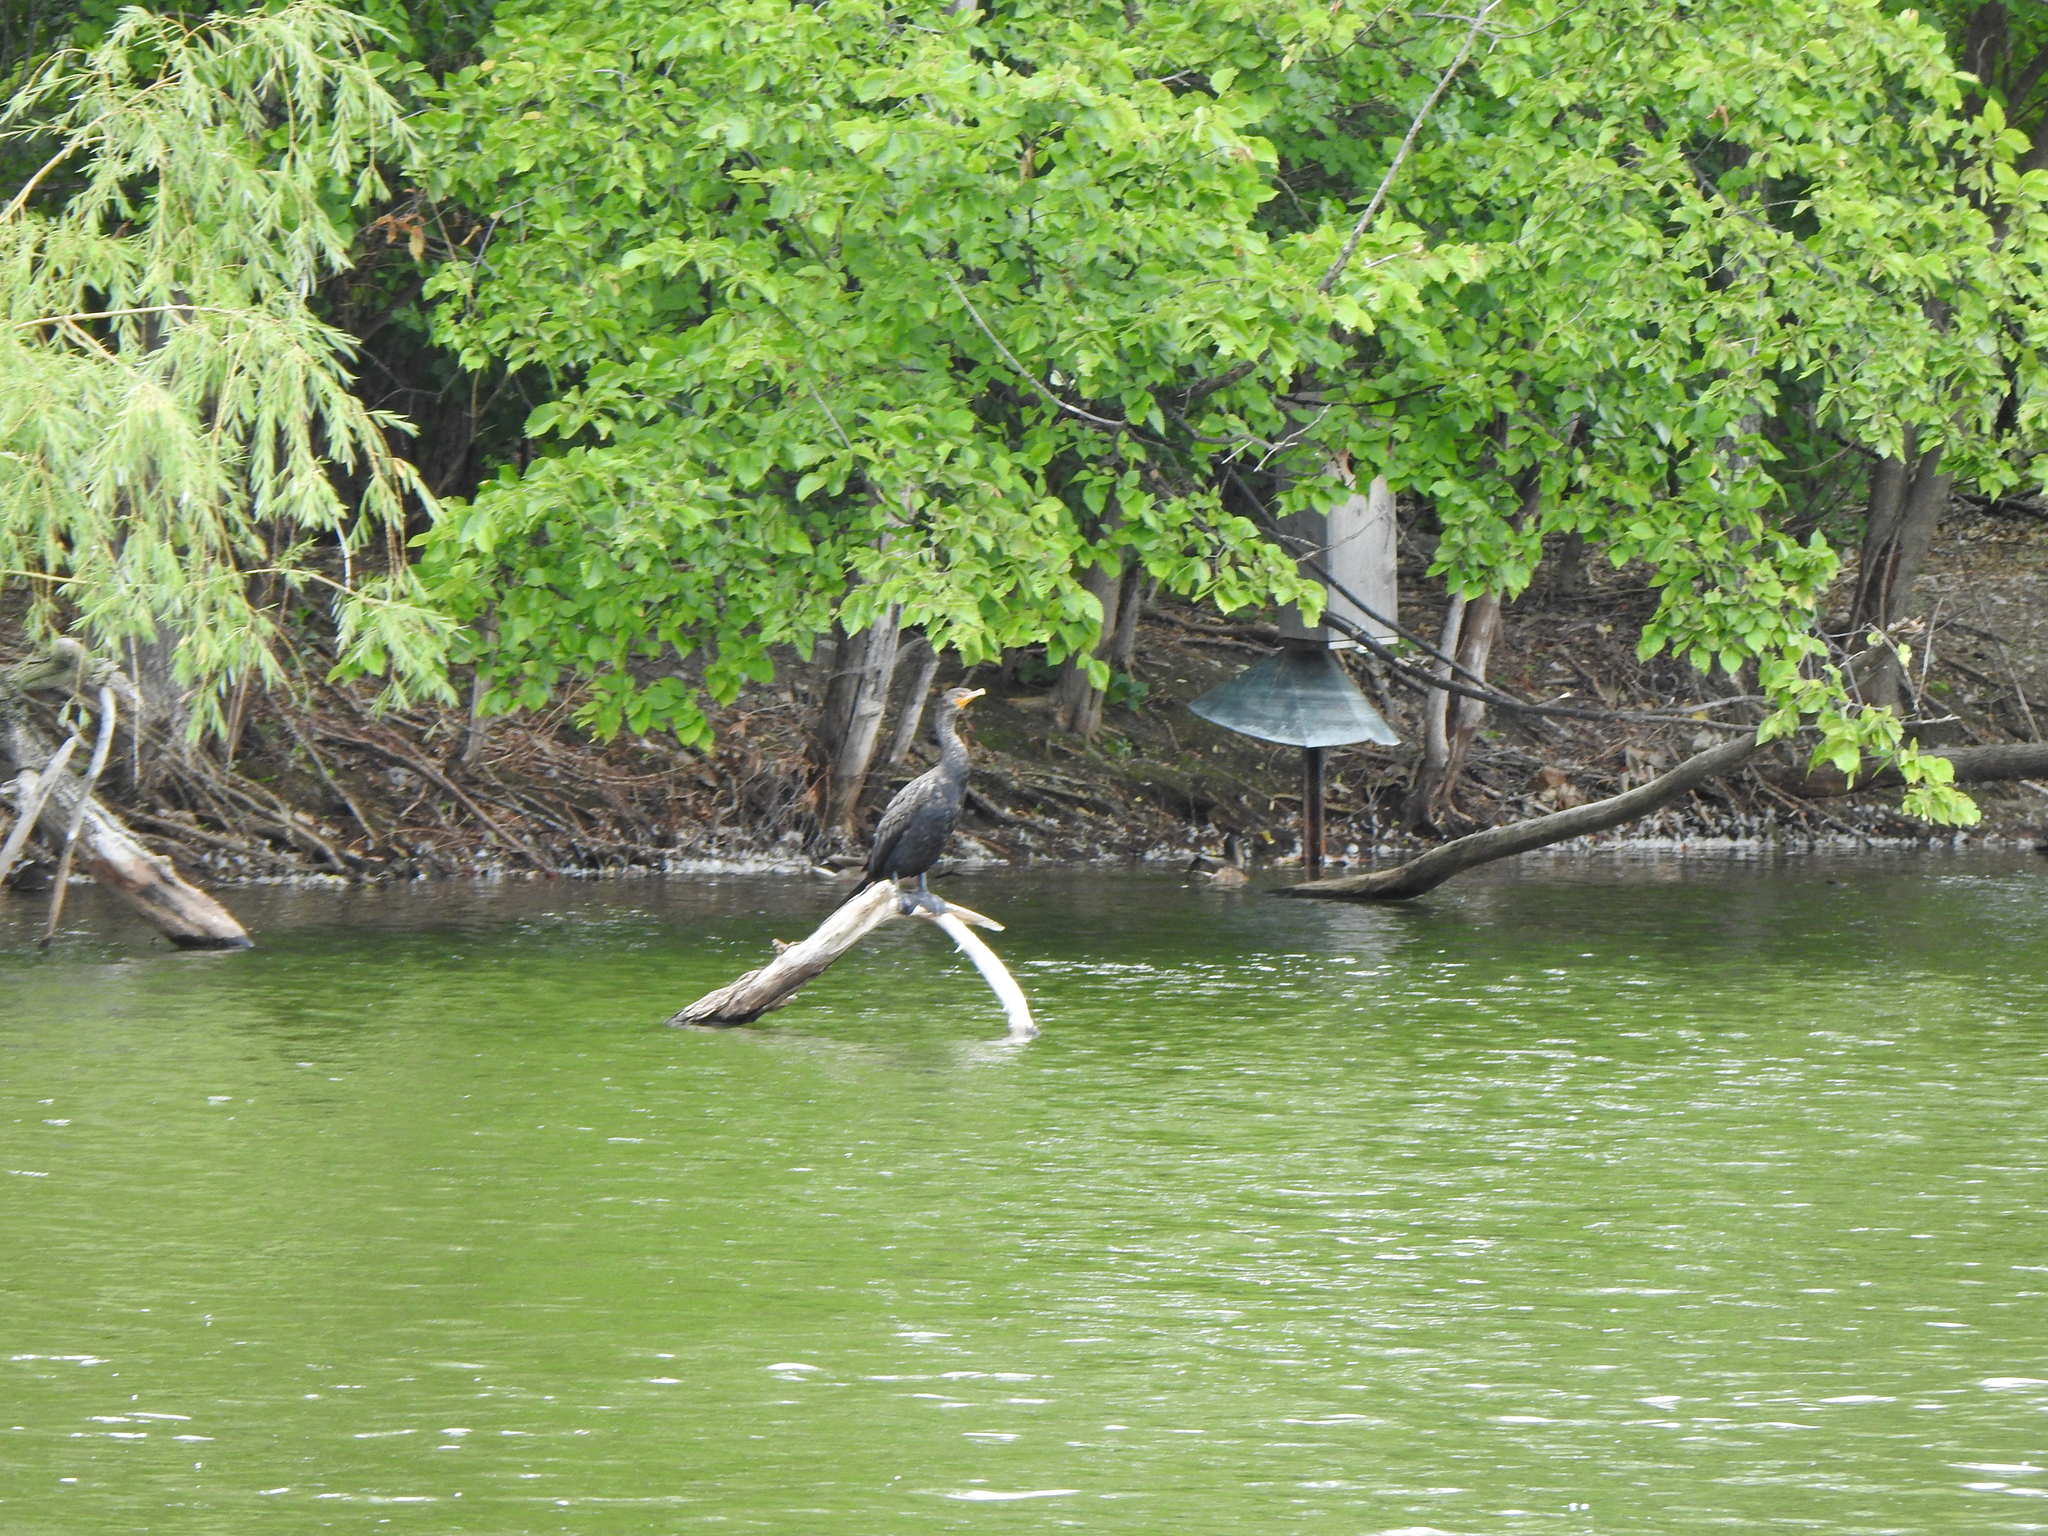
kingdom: Animalia
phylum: Chordata
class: Aves
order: Suliformes
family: Phalacrocoracidae
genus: Phalacrocorax
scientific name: Phalacrocorax auritus
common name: Double-crested cormorant
